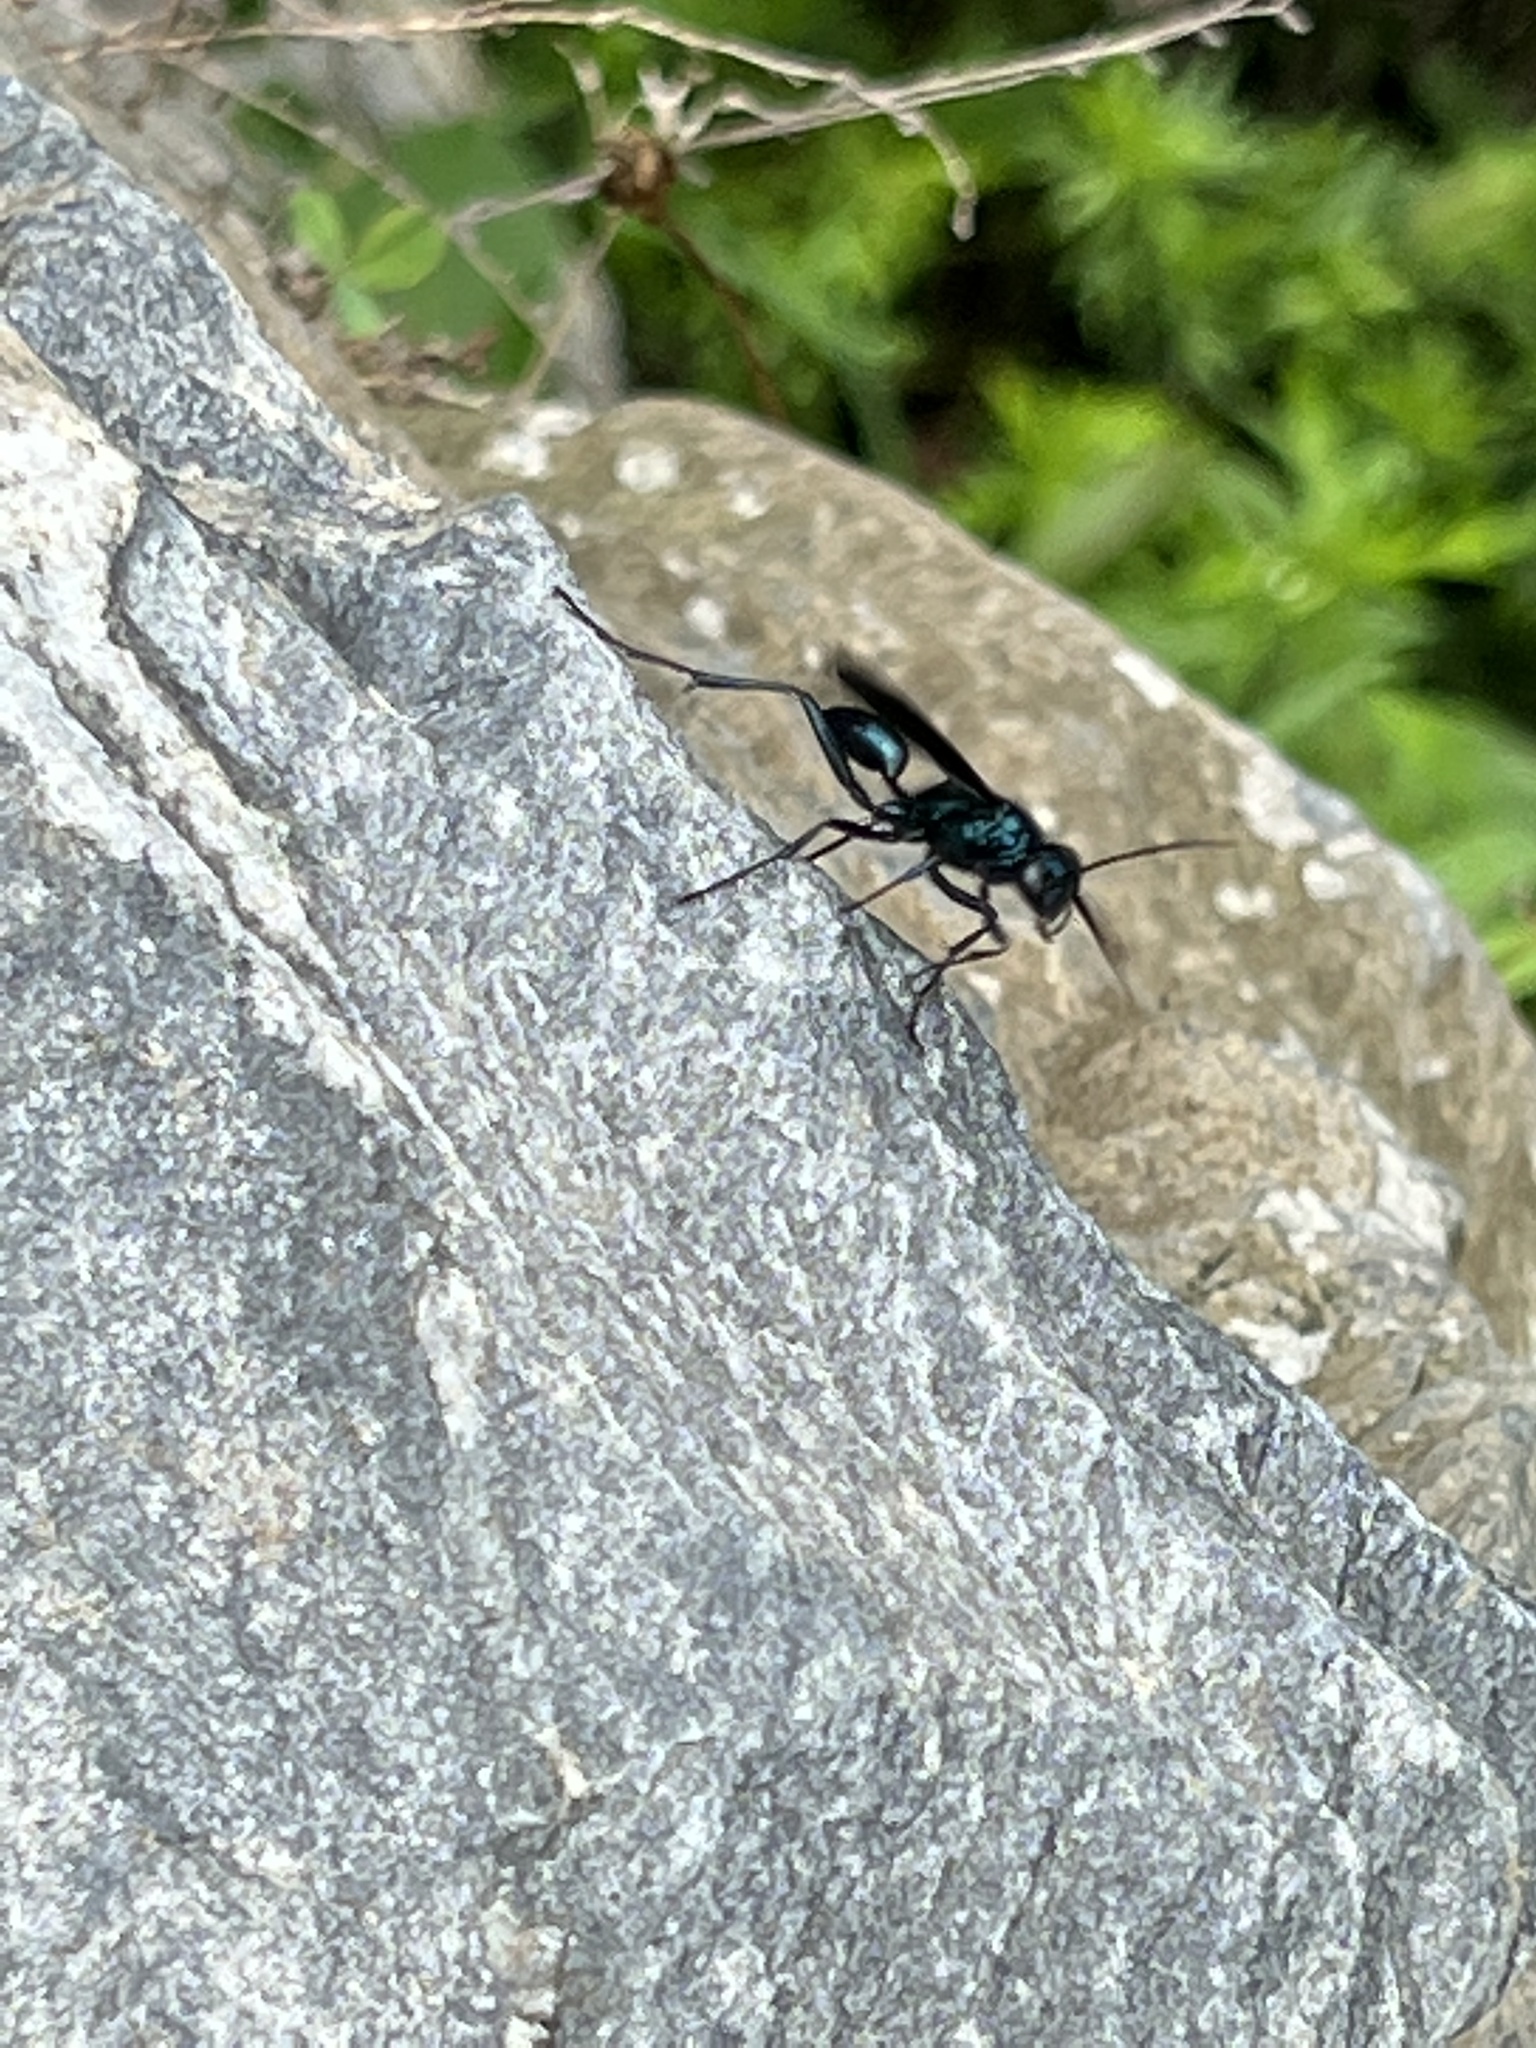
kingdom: Animalia
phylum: Arthropoda
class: Insecta
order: Hymenoptera
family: Sphecidae
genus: Chalybion
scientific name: Chalybion californicum
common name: Mud dauber
